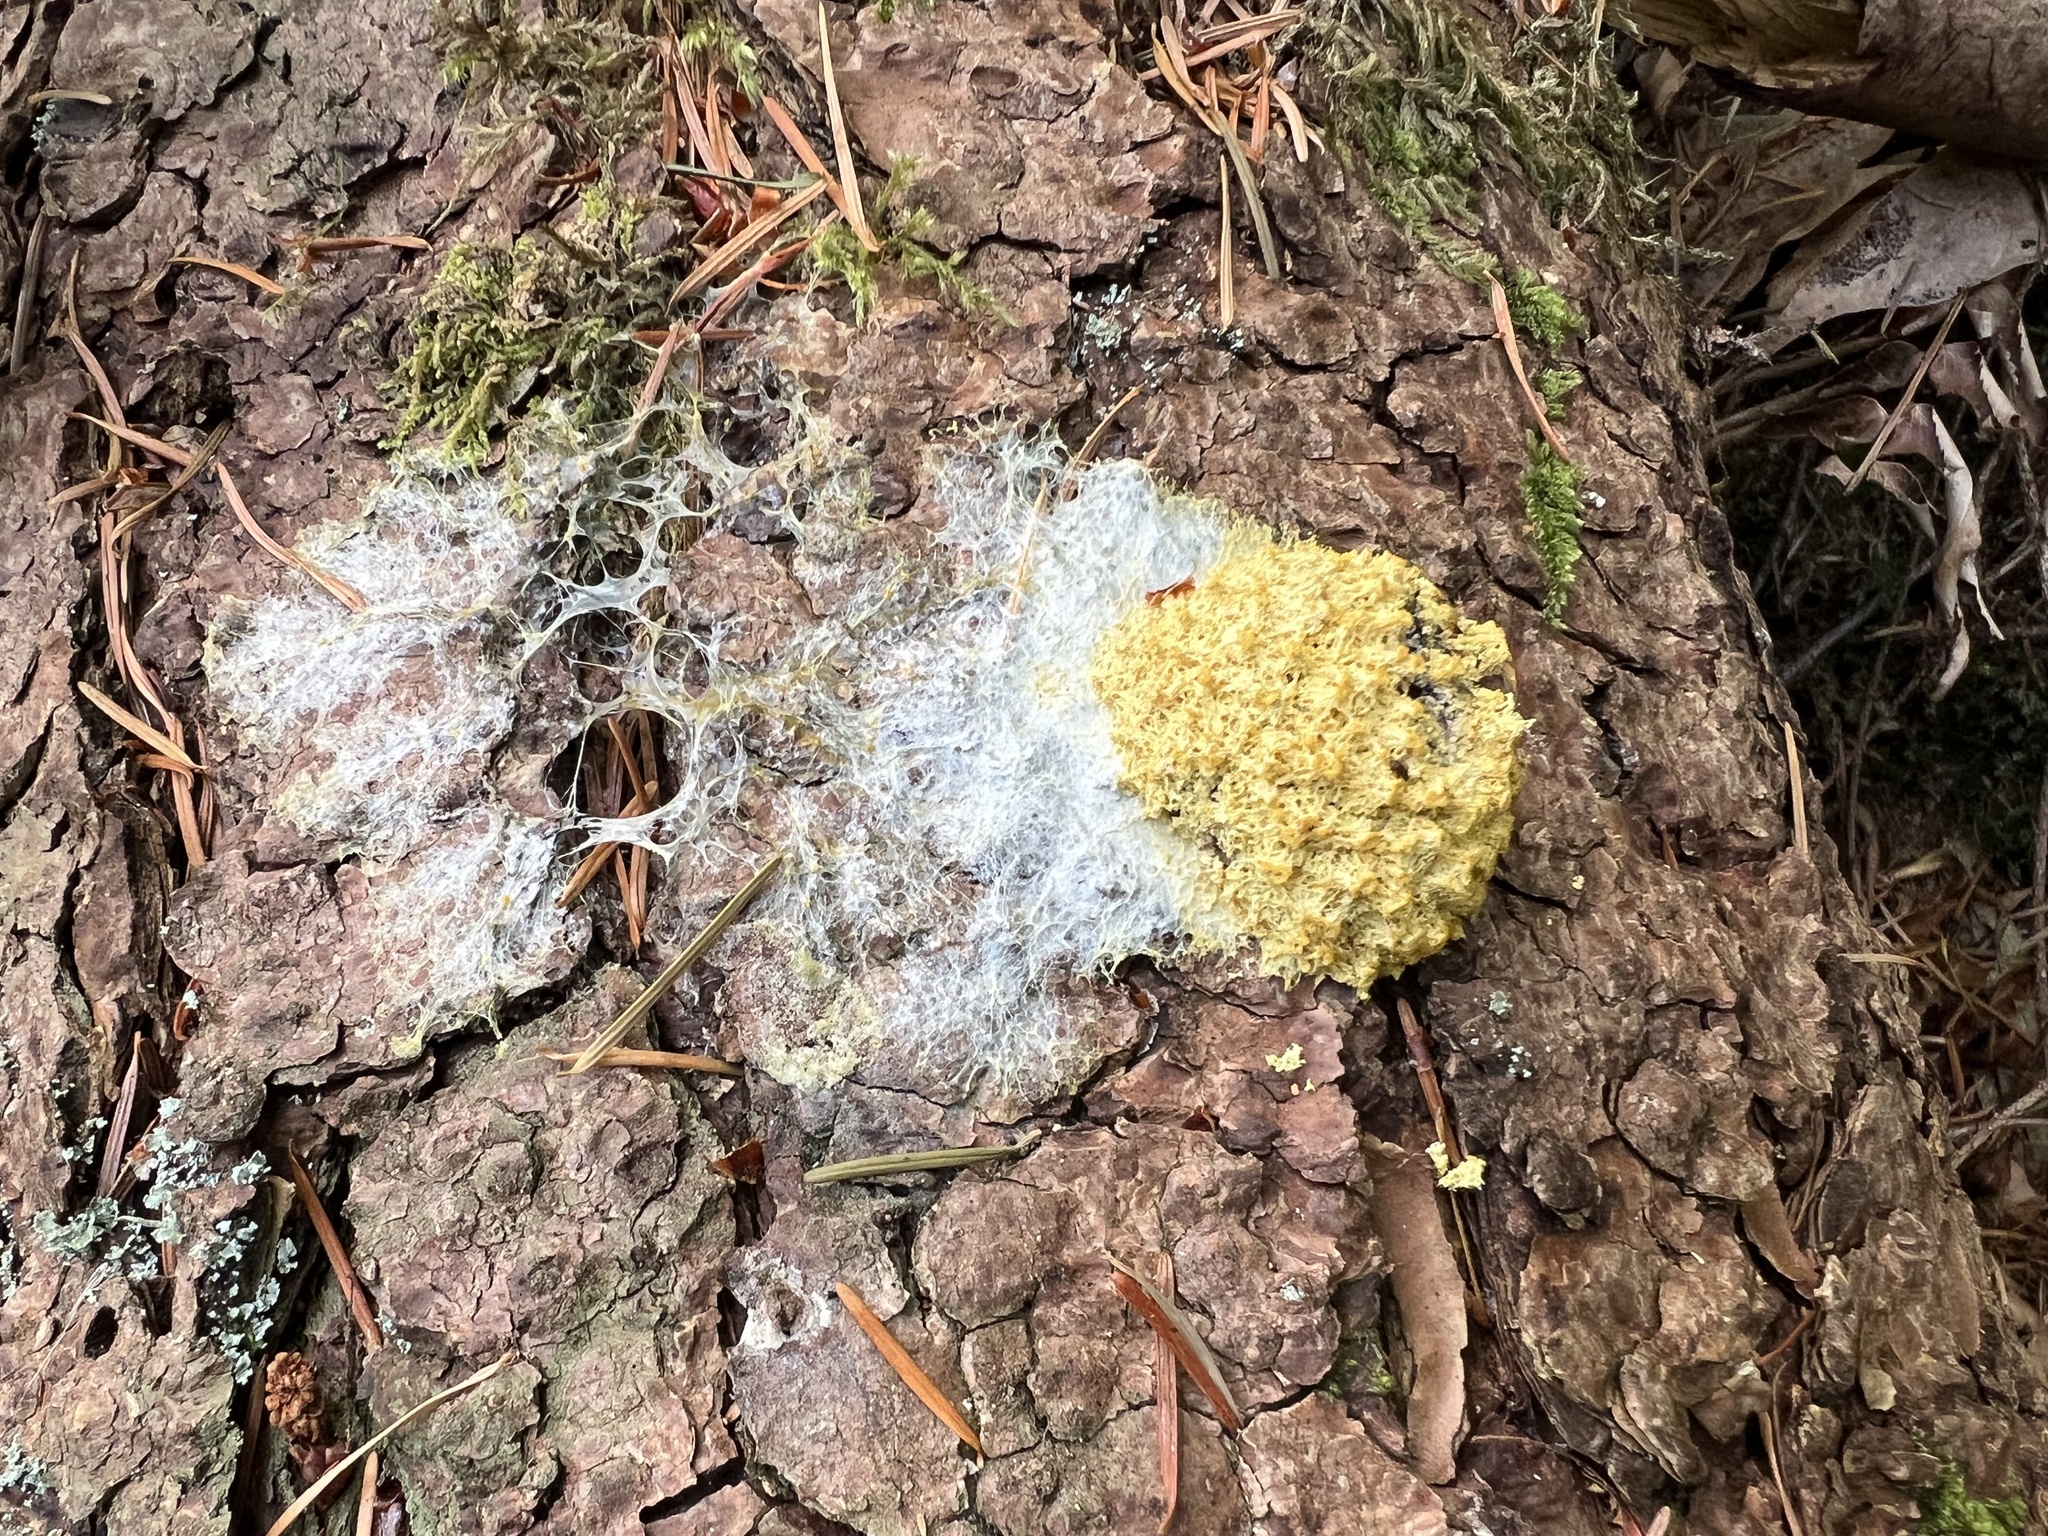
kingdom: Protozoa
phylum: Mycetozoa
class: Myxomycetes
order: Physarales
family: Physaraceae
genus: Fuligo
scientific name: Fuligo septica
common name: Dog vomit slime mold
